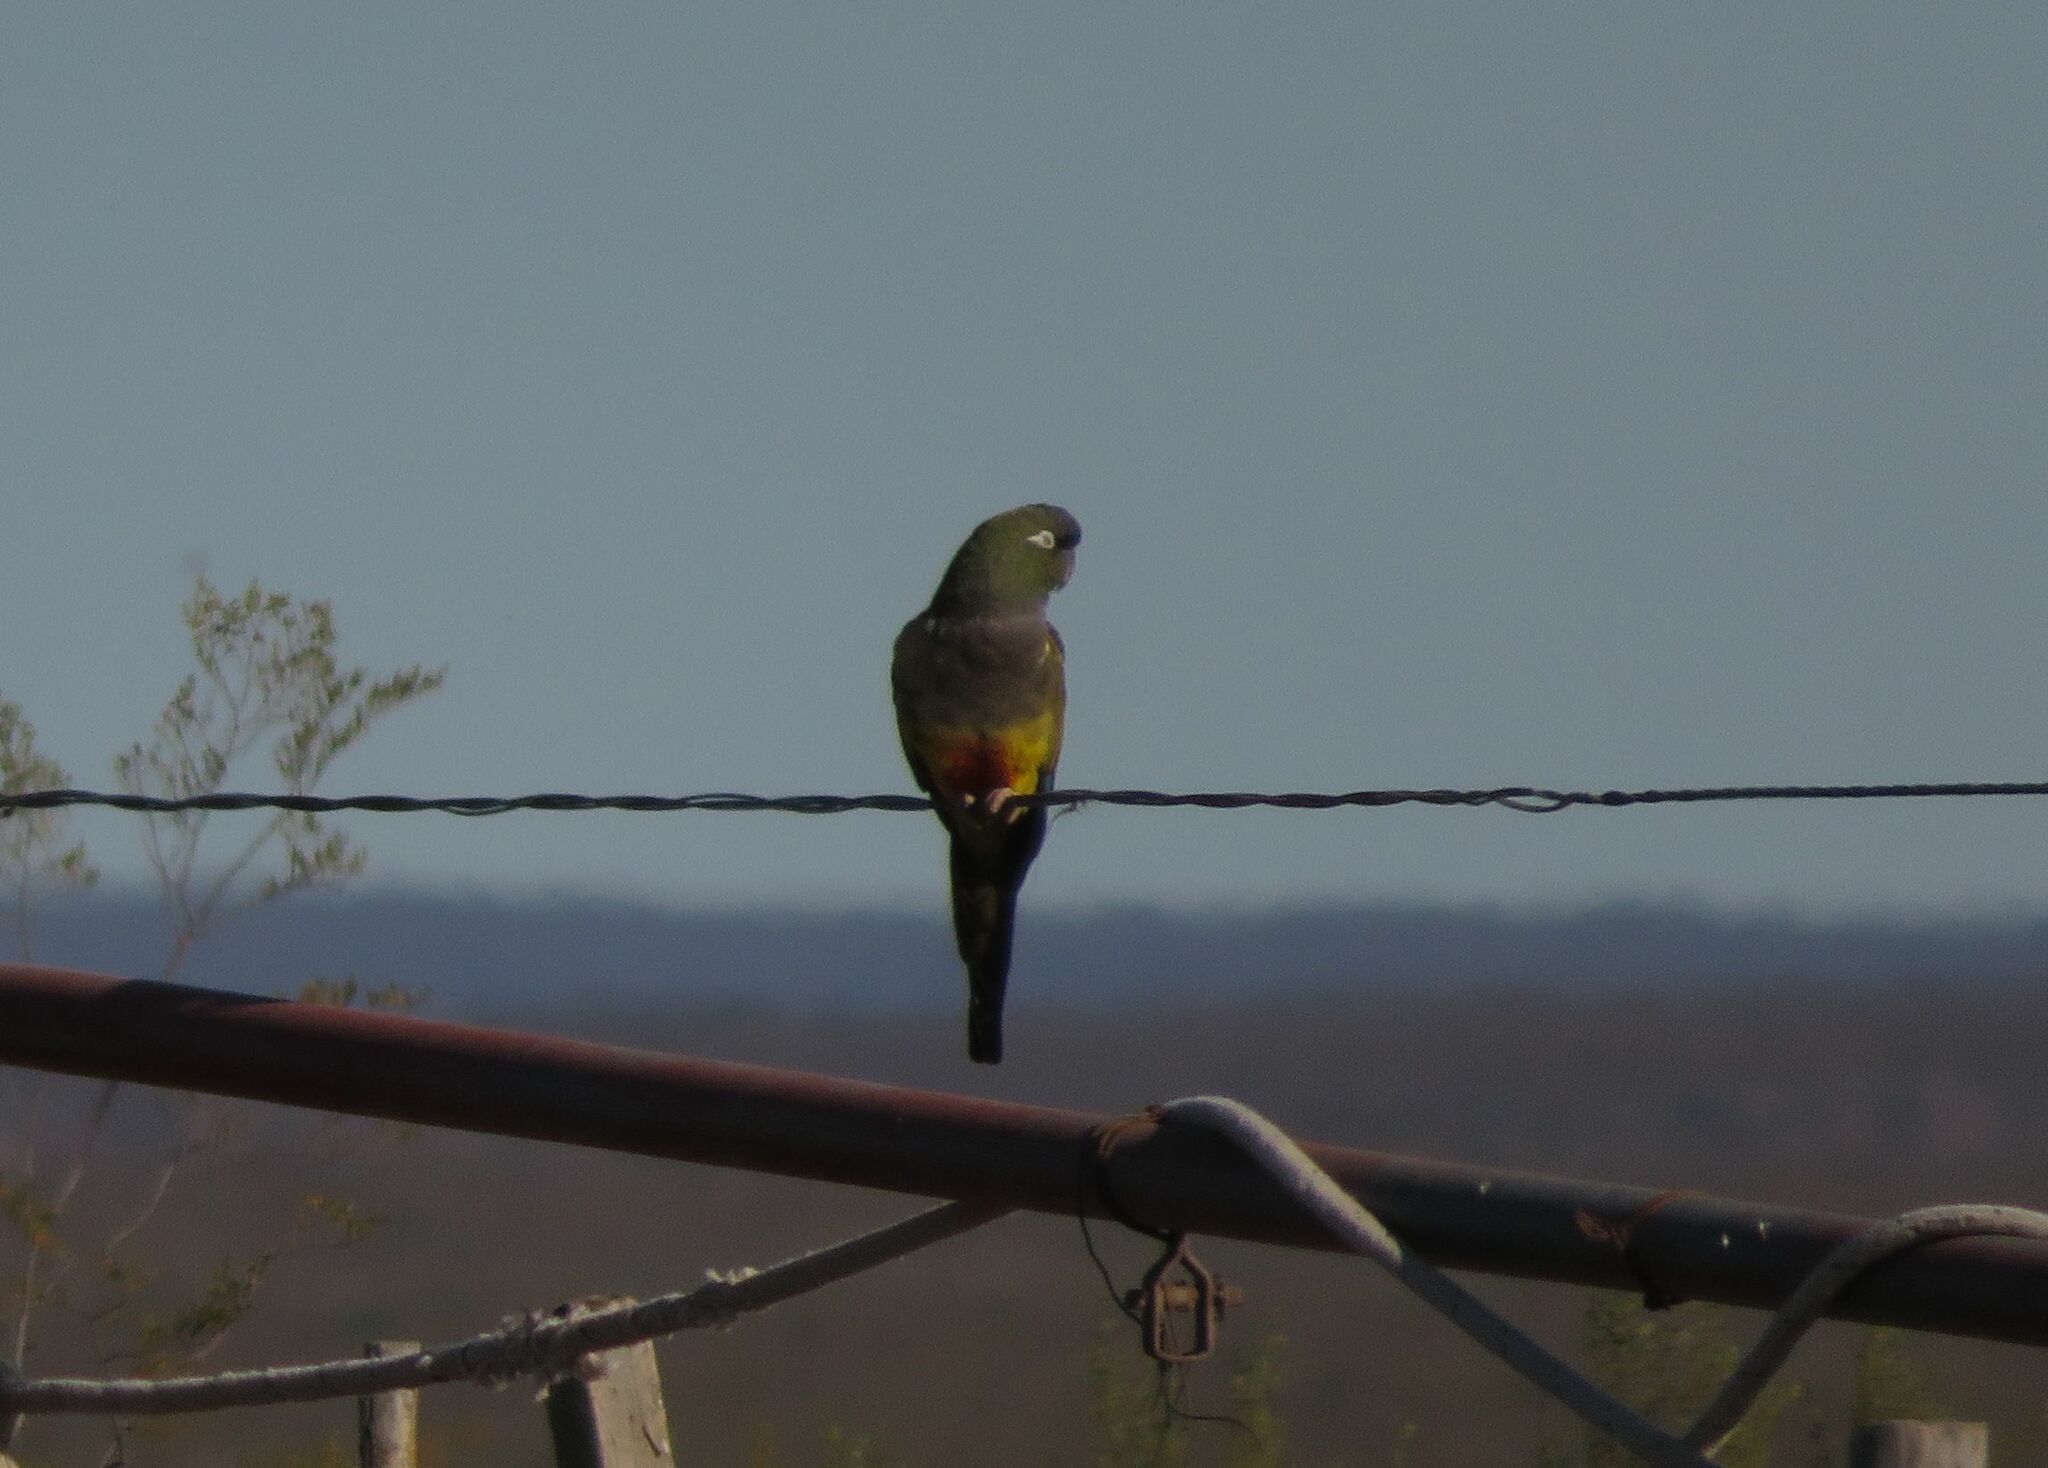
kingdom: Animalia
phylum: Chordata
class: Aves
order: Psittaciformes
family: Psittacidae
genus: Cyanoliseus
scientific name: Cyanoliseus patagonus
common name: Burrowing parrot
